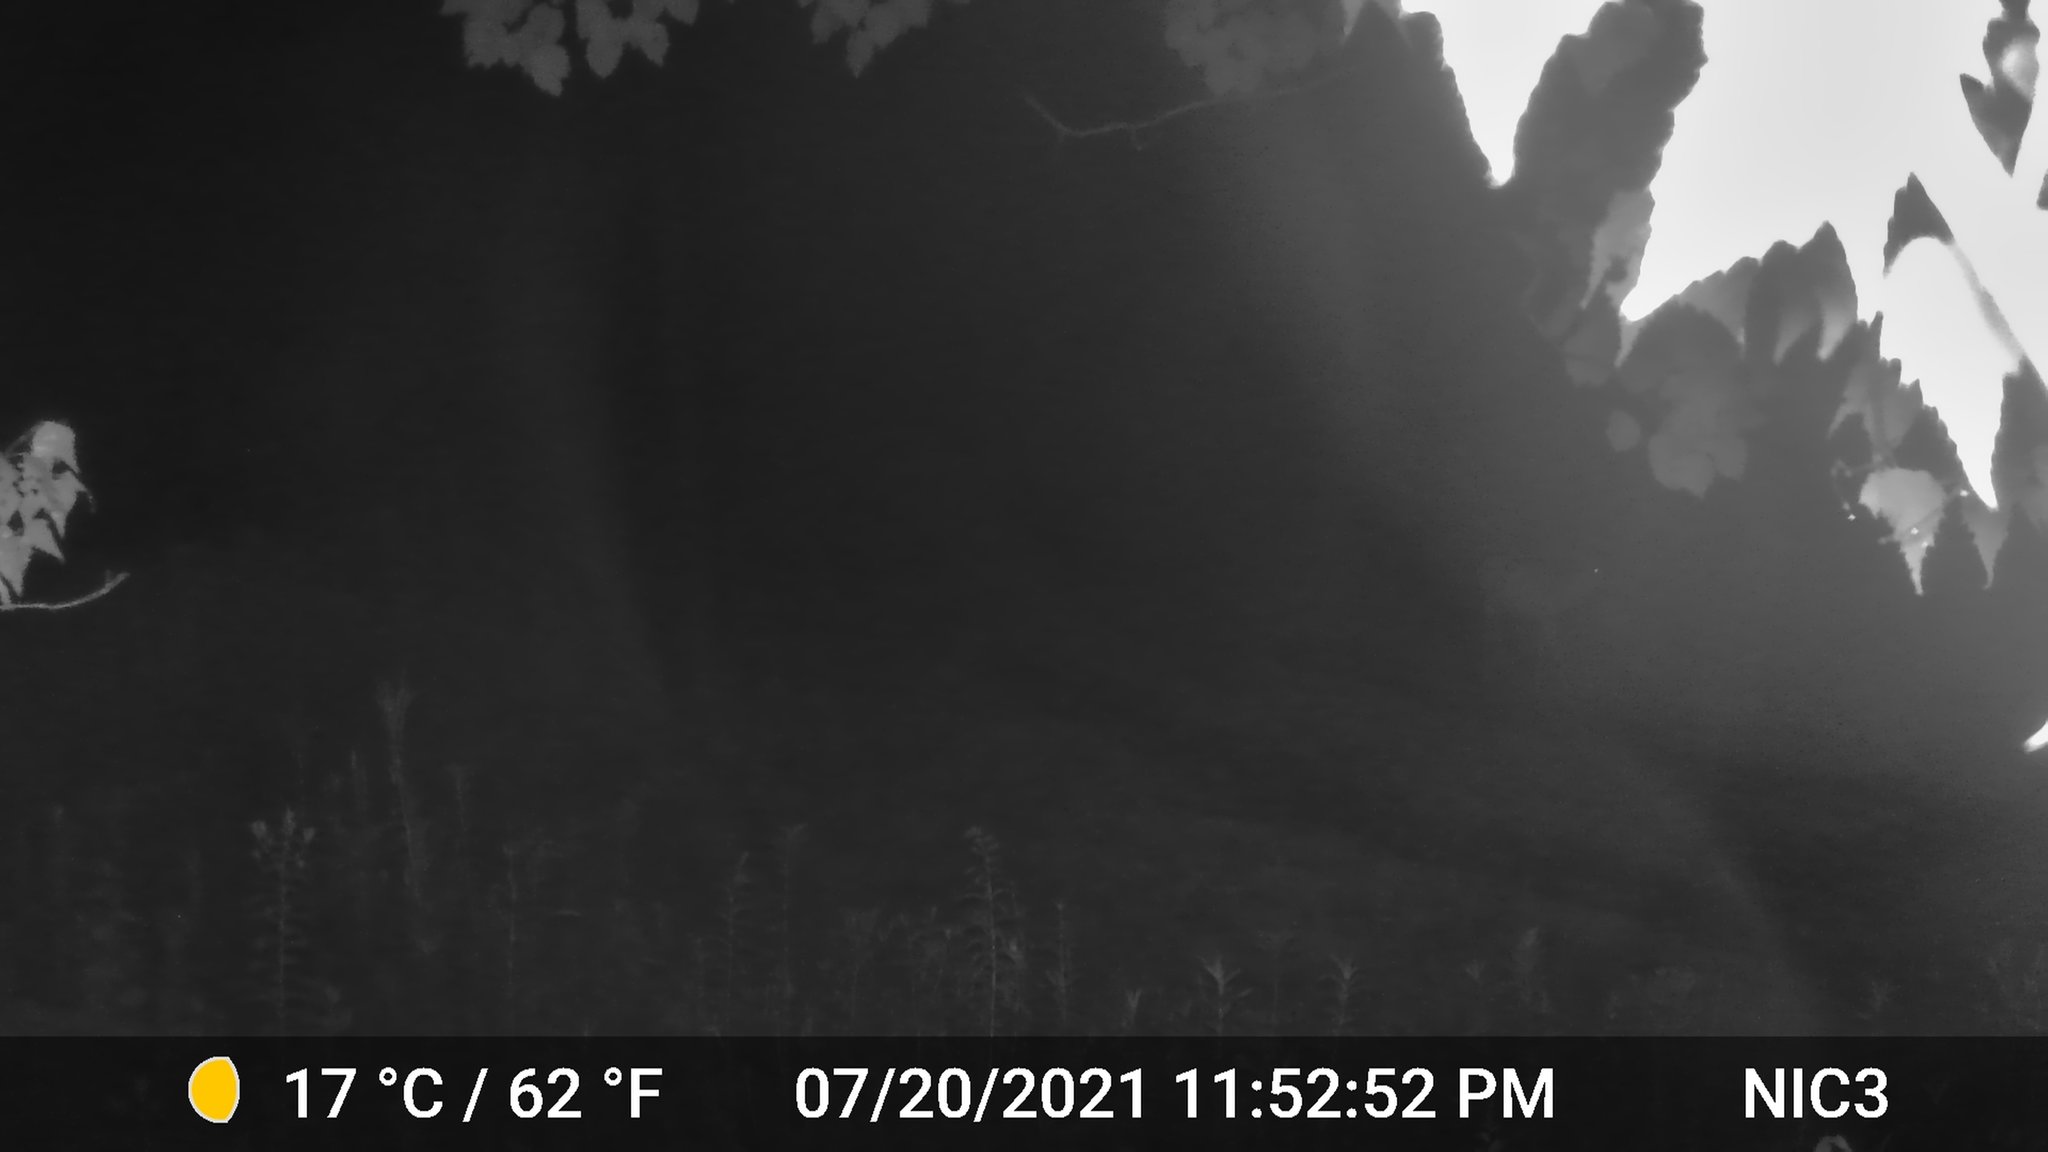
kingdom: Animalia
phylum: Chordata
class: Mammalia
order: Artiodactyla
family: Cervidae
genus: Odocoileus
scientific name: Odocoileus virginianus
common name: White-tailed deer
